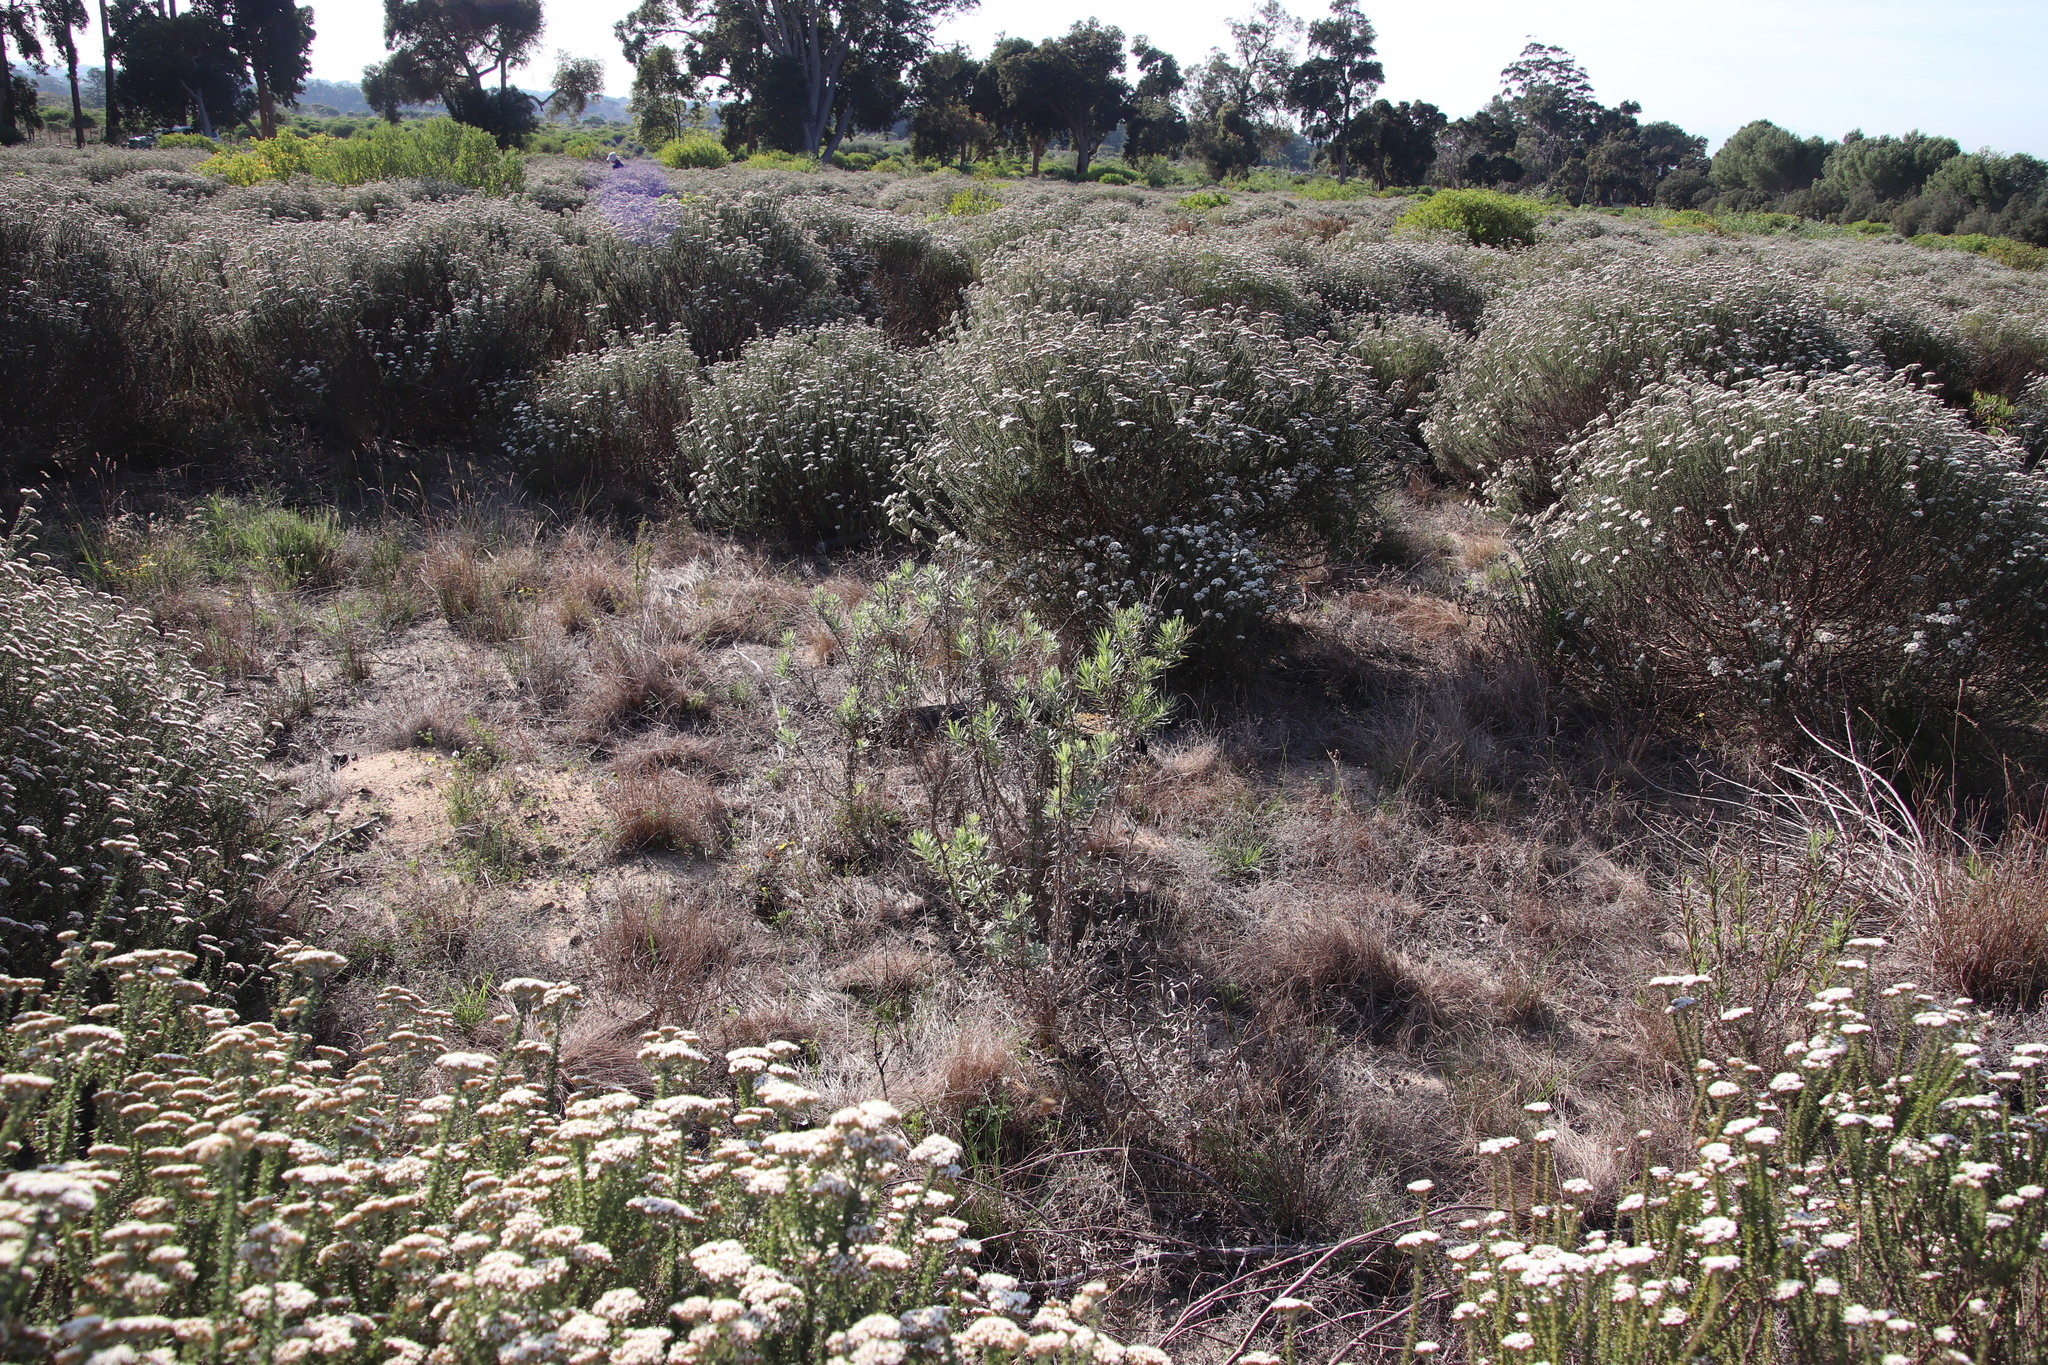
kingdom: Plantae
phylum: Tracheophyta
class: Liliopsida
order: Poales
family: Poaceae
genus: Tribolium
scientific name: Tribolium uniolae
